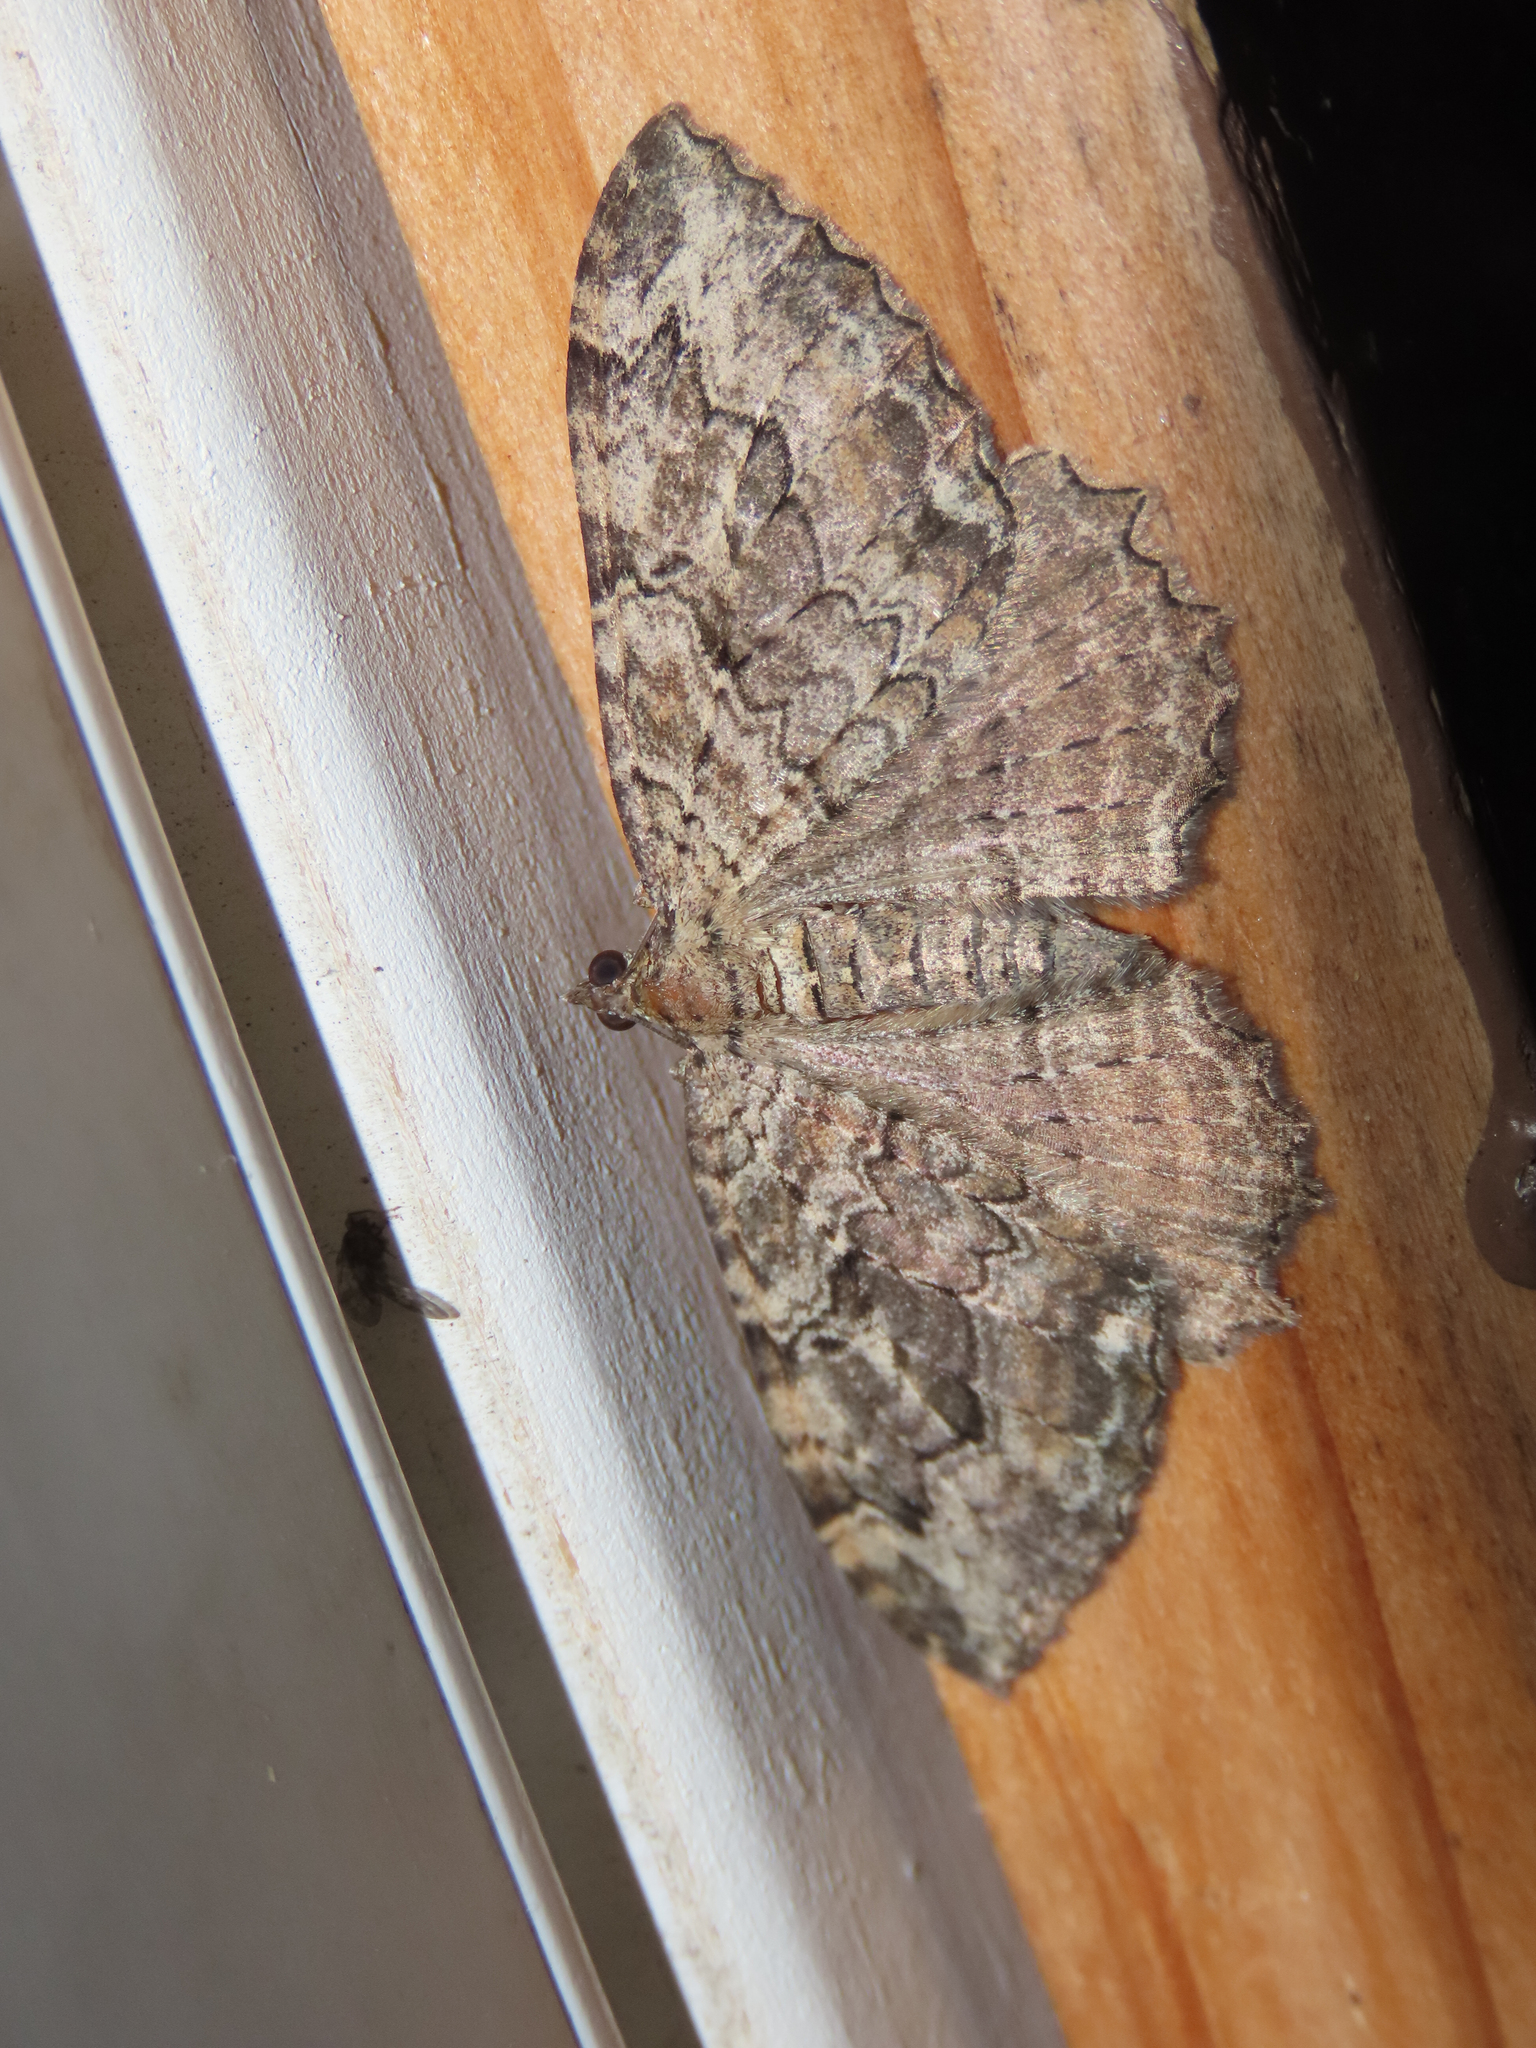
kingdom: Animalia
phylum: Arthropoda
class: Insecta
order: Lepidoptera
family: Geometridae
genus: Rheumaptera
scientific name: Rheumaptera
